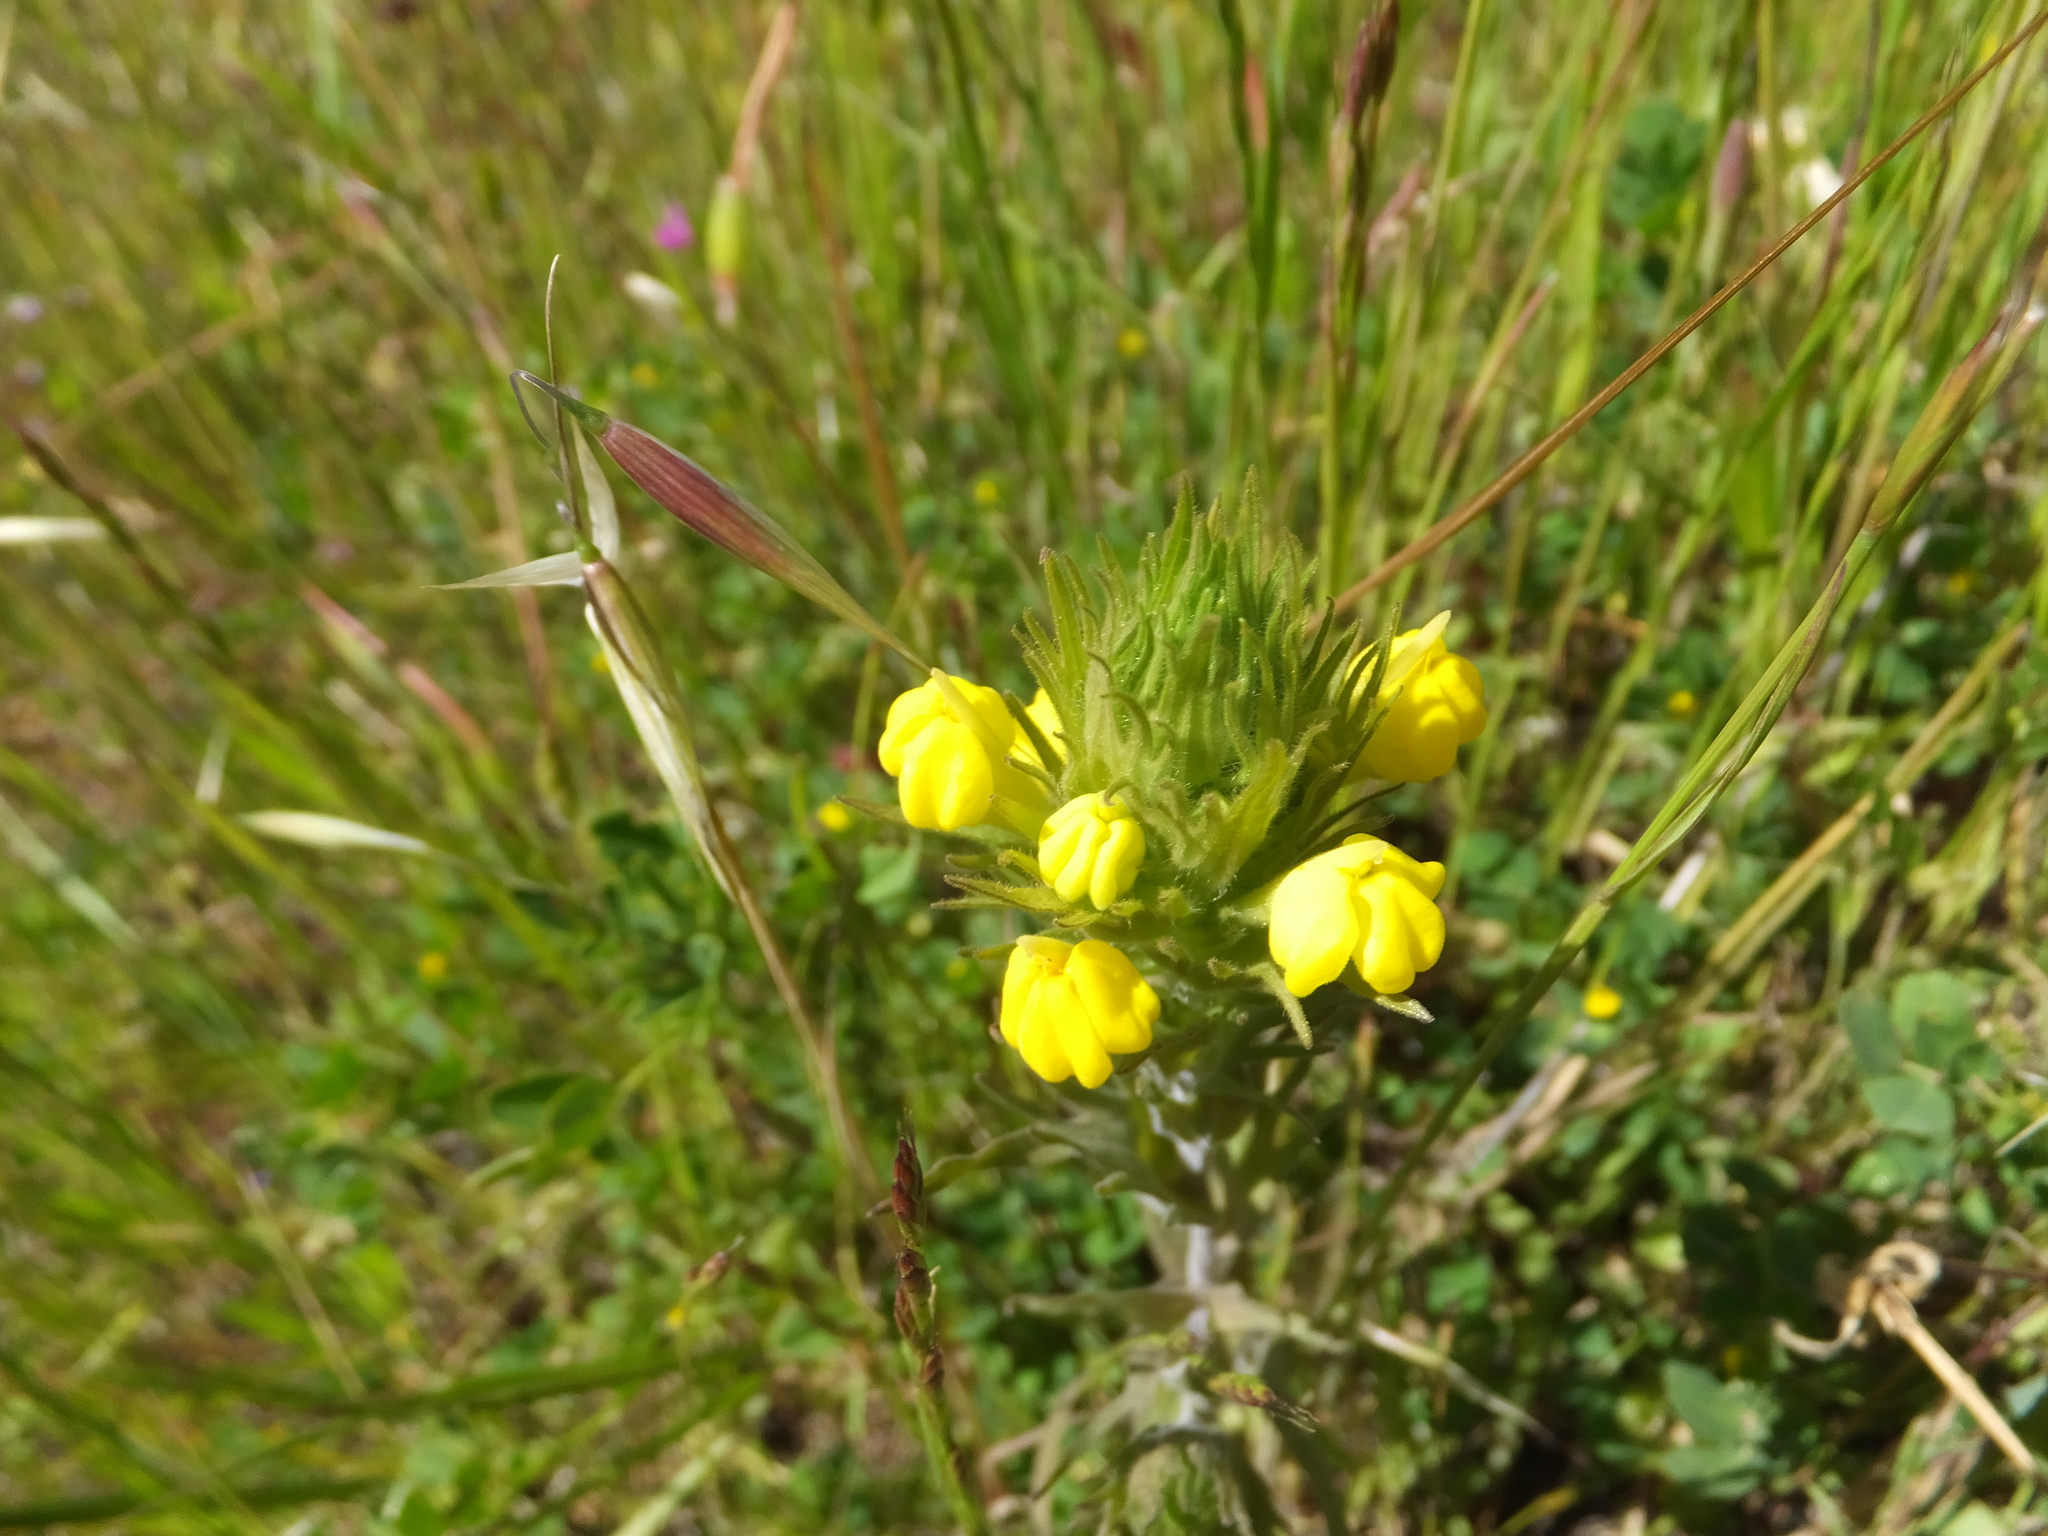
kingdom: Plantae
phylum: Tracheophyta
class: Magnoliopsida
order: Lamiales
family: Orobanchaceae
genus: Castilleja
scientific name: Castilleja rubicundula
